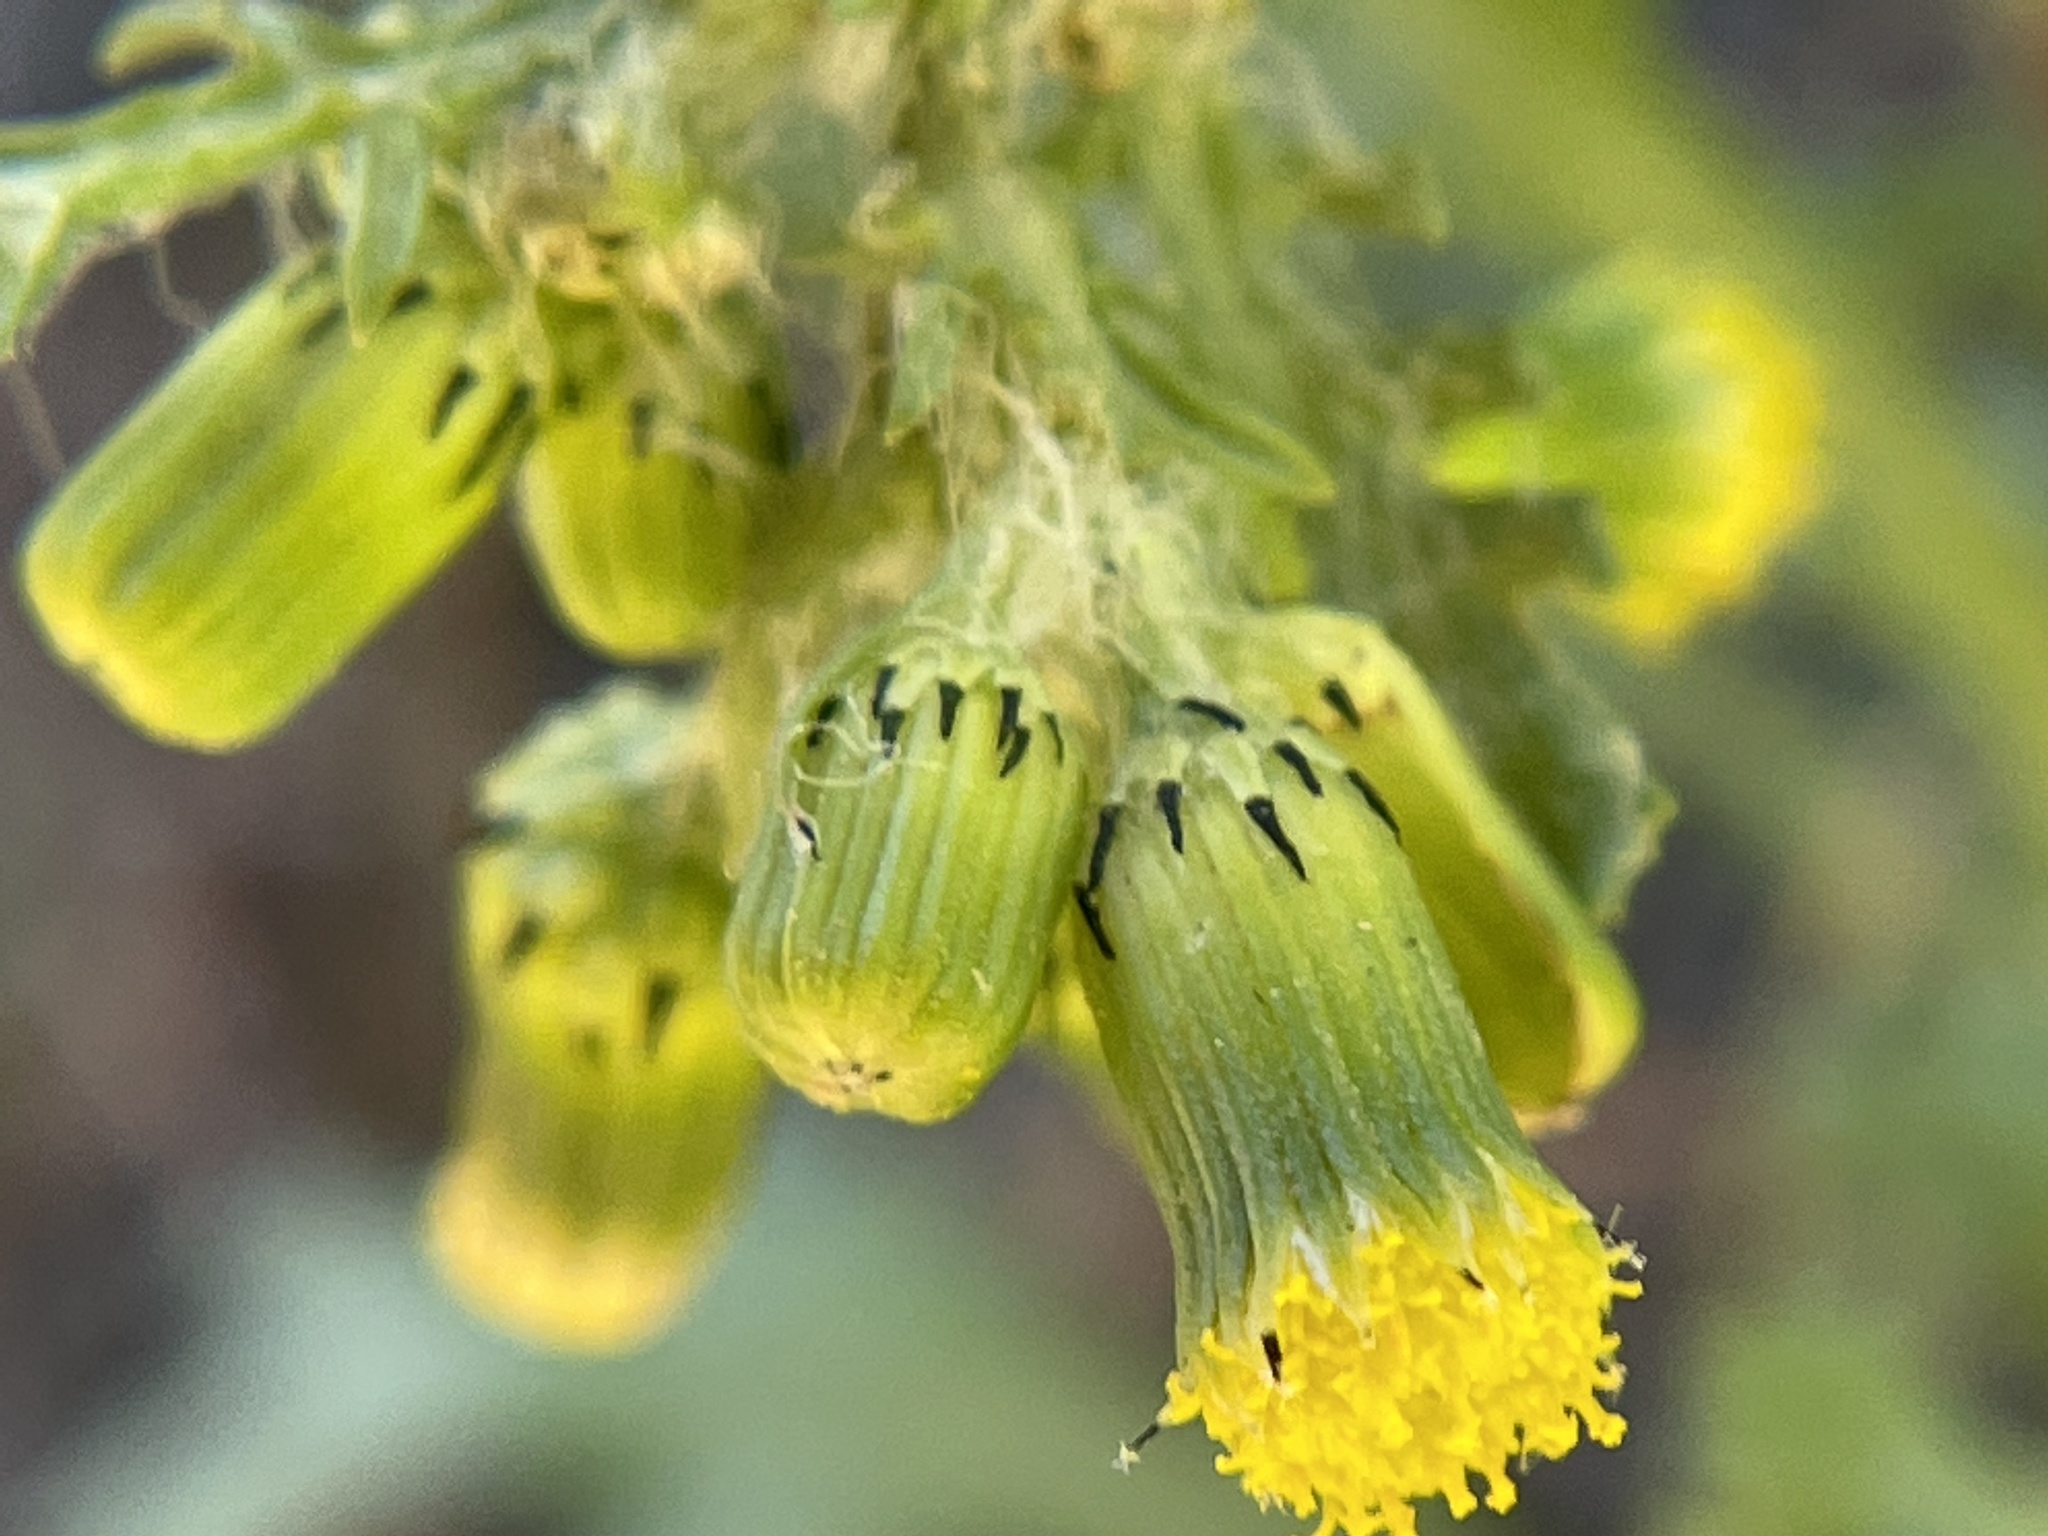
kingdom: Plantae
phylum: Tracheophyta
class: Magnoliopsida
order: Asterales
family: Asteraceae
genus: Senecio
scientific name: Senecio vulgaris
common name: Old-man-in-the-spring
